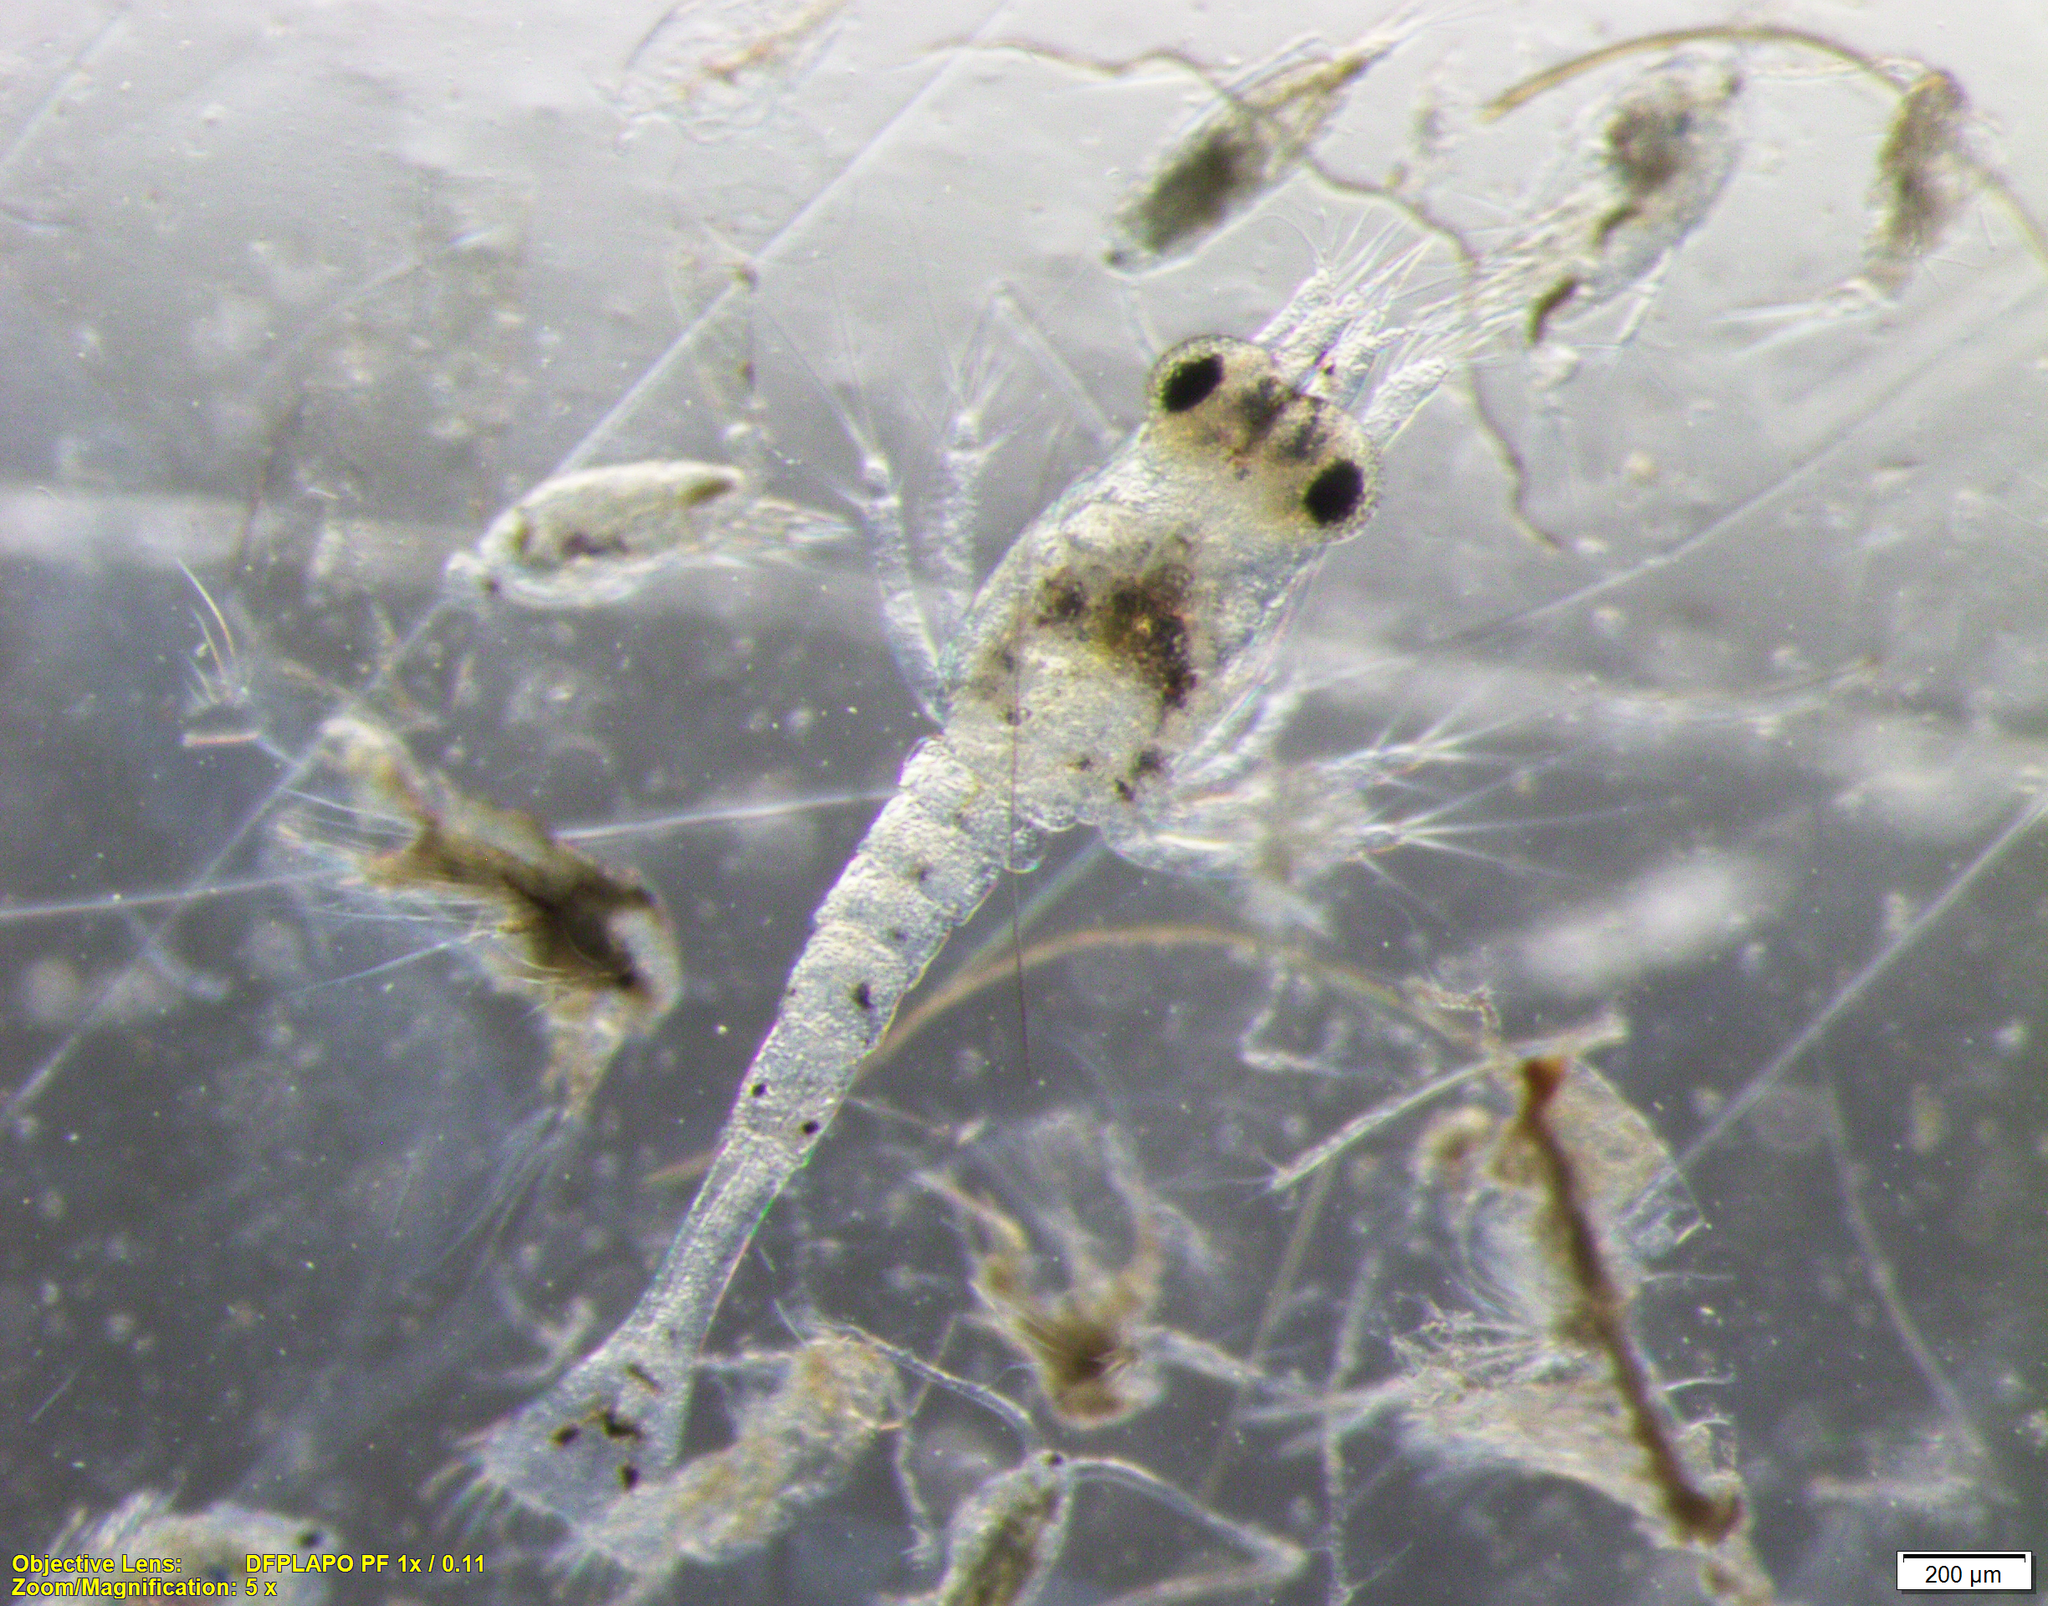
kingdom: Animalia
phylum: Arthropoda
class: Malacostraca
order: Decapoda
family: Crangonidae
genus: Crangon
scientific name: Crangon septemspinosa
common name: Bail shrimp
